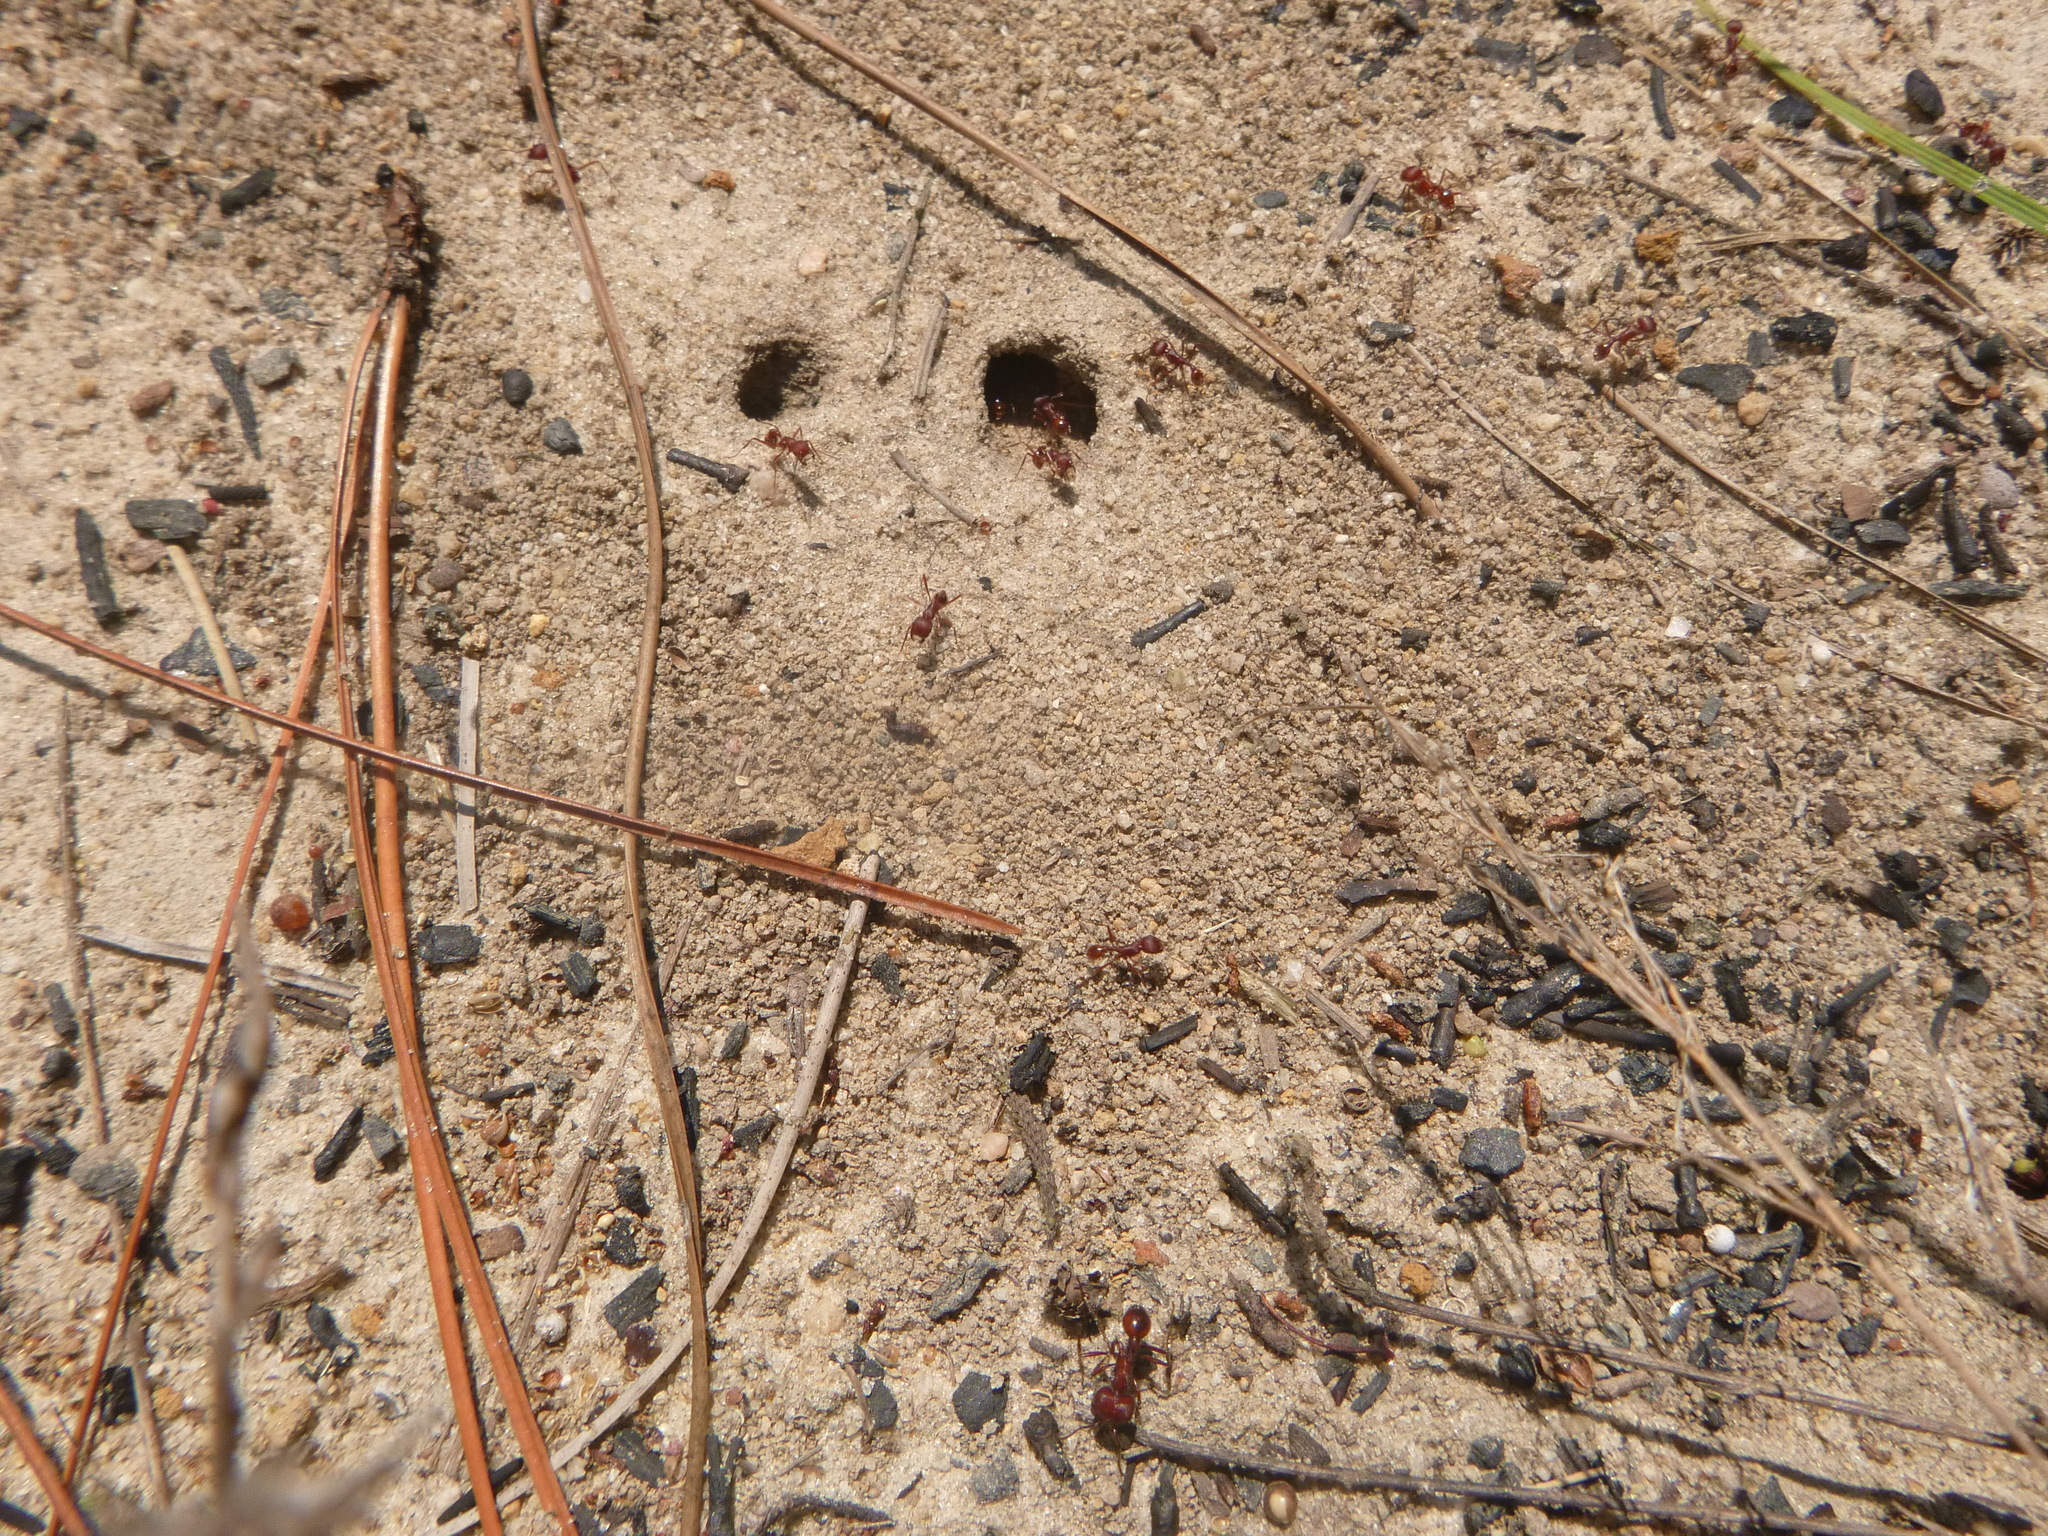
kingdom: Animalia
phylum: Arthropoda
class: Insecta
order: Hymenoptera
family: Formicidae
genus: Pogonomyrmex
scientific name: Pogonomyrmex badius
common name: Florida harvester ant
